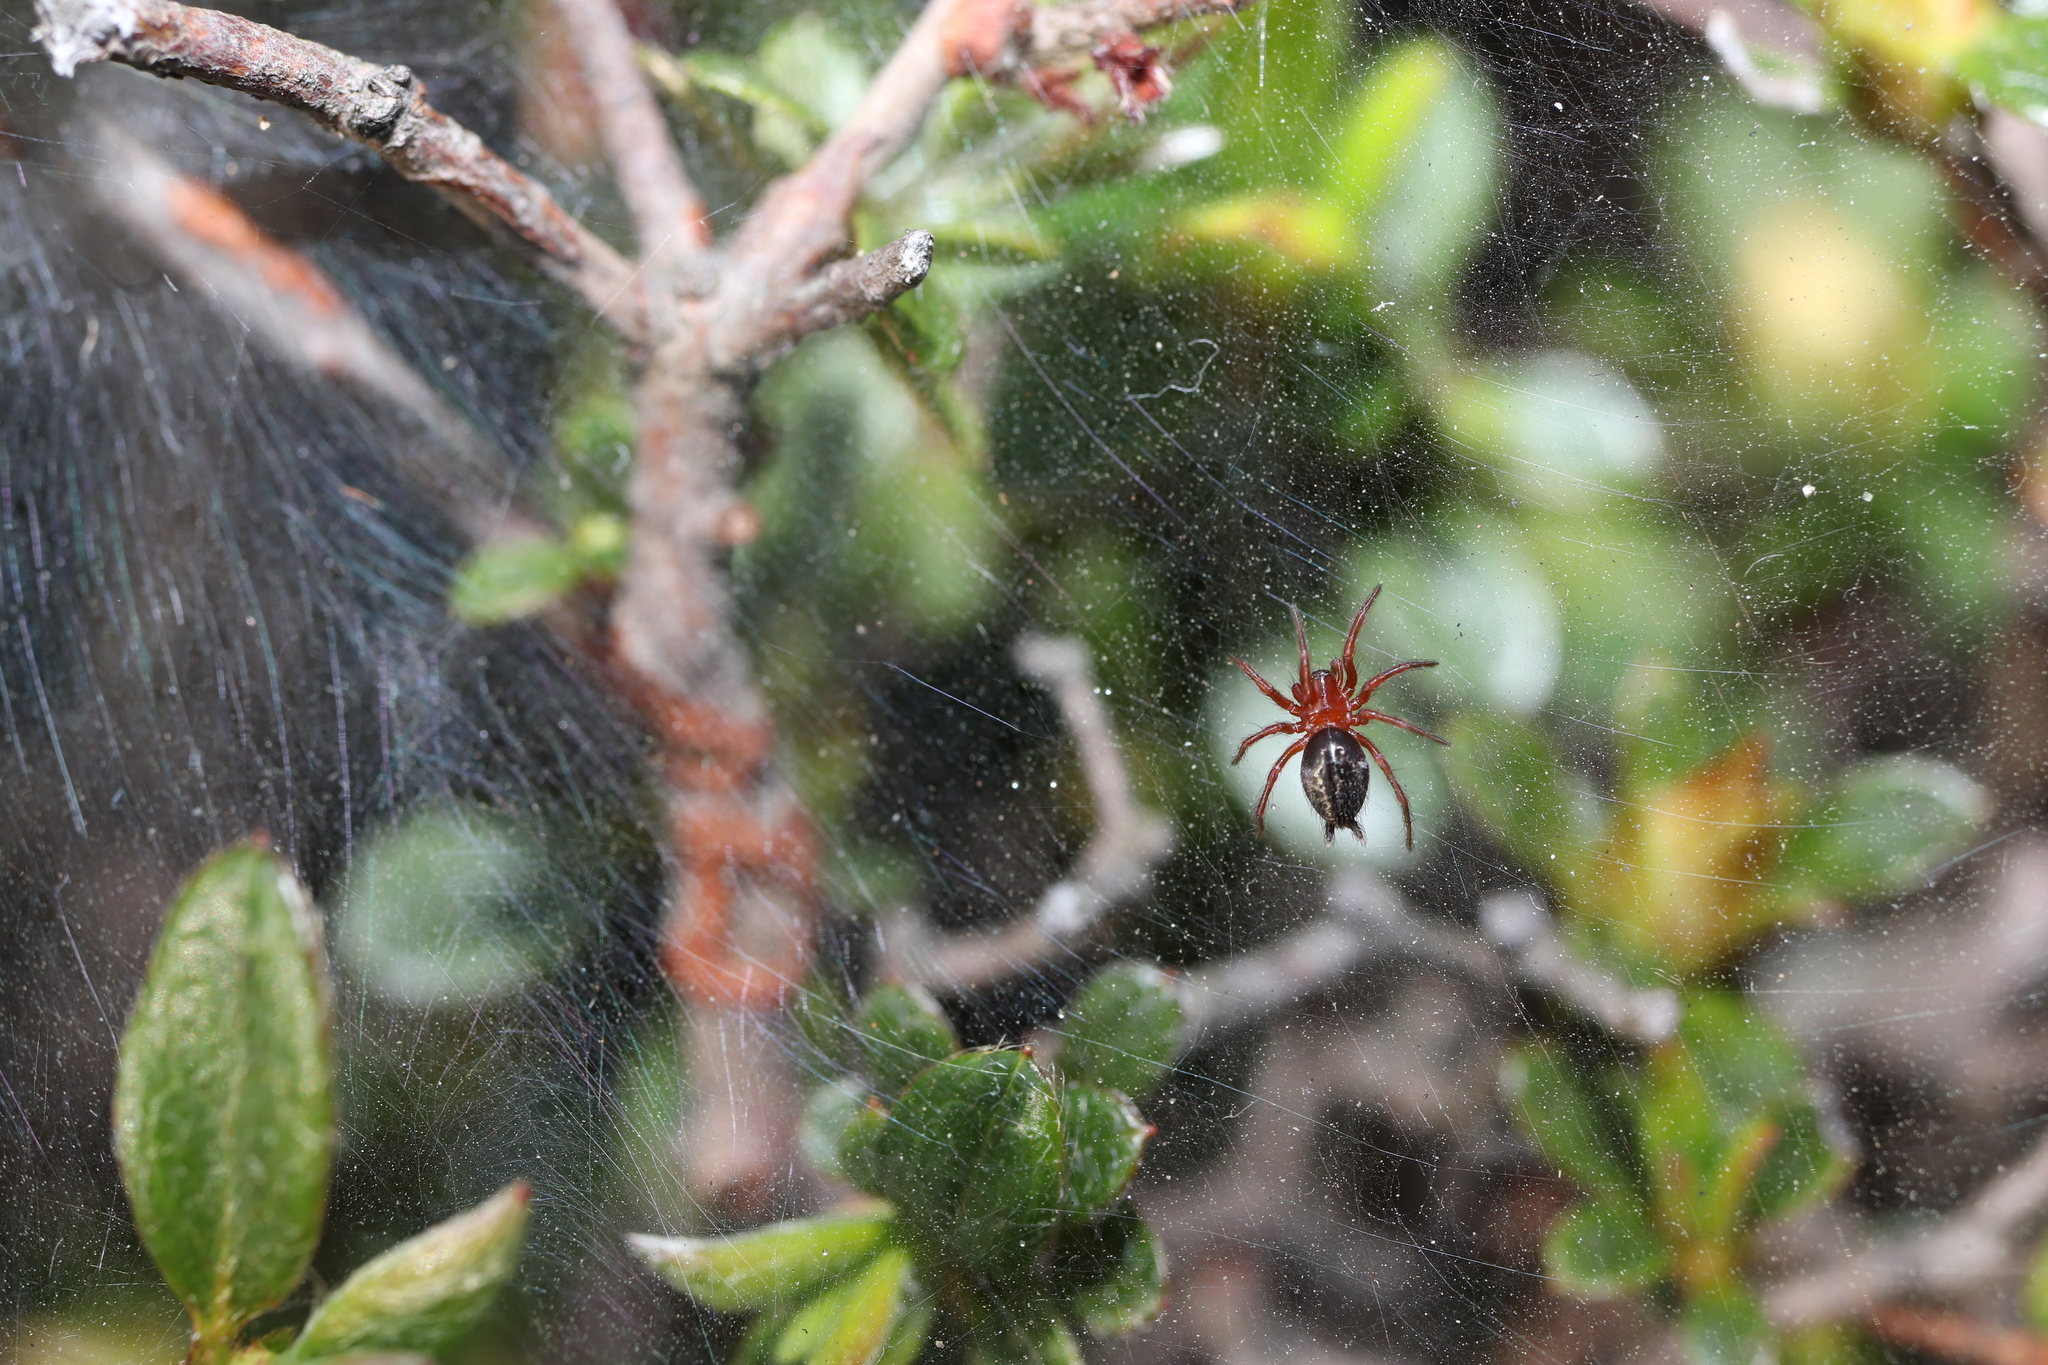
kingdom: Animalia
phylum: Arthropoda
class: Arachnida
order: Araneae
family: Agelenidae
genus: Agelena
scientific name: Agelena silvatica
